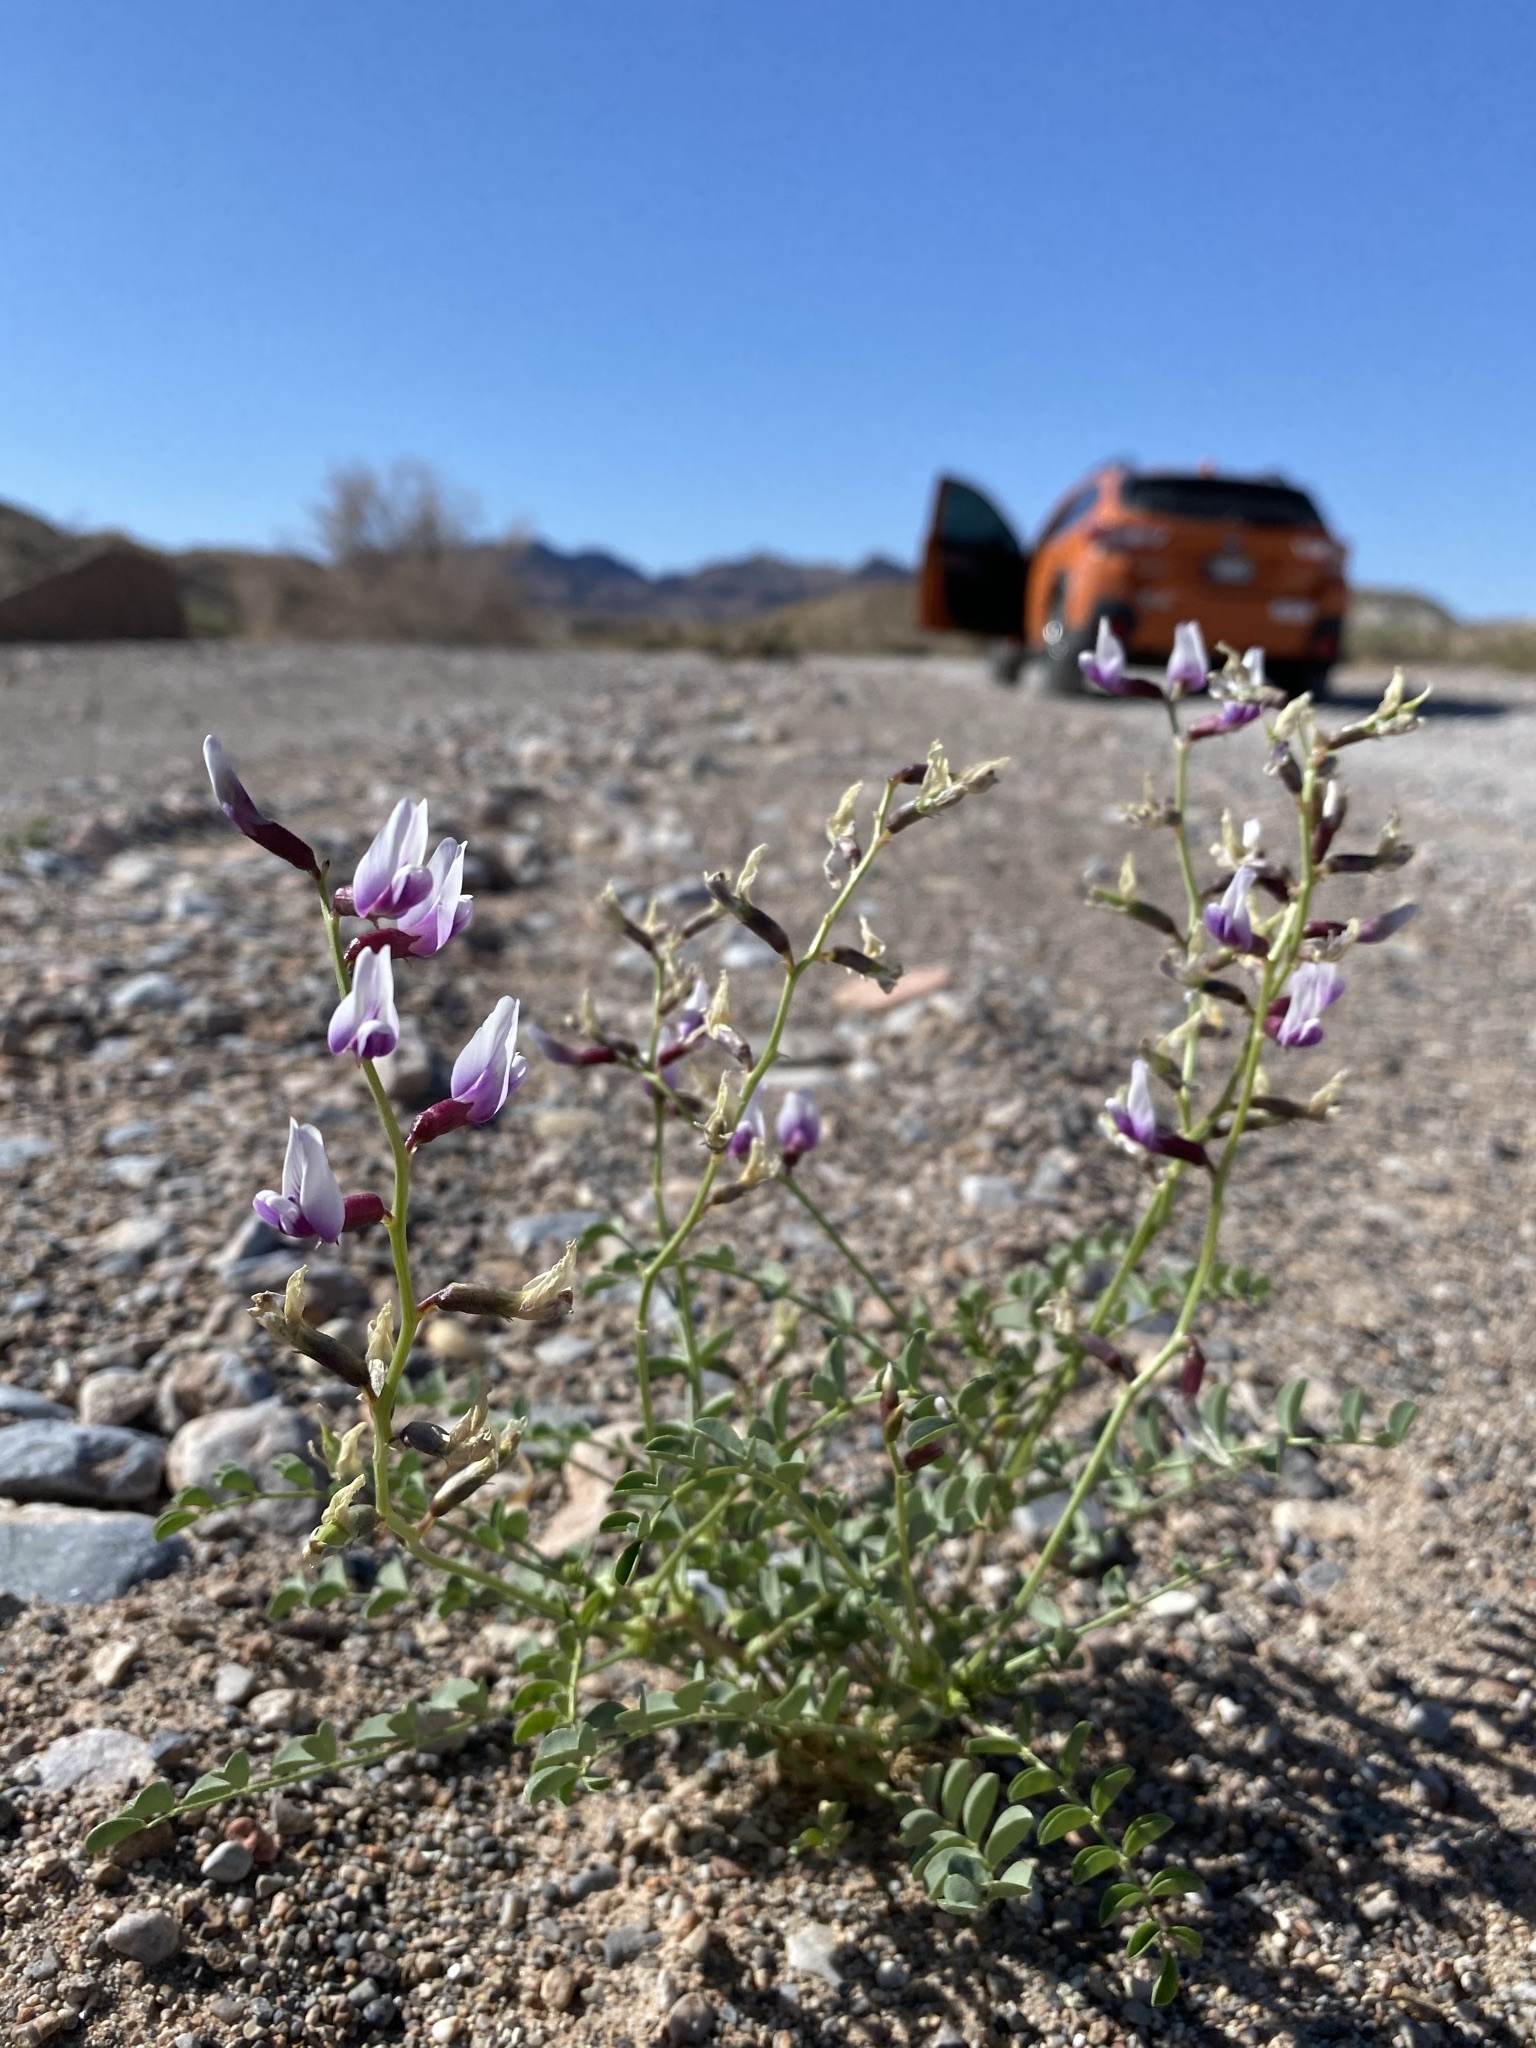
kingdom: Plantae
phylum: Tracheophyta
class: Magnoliopsida
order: Fabales
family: Fabaceae
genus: Astragalus
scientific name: Astragalus preussii
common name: Preuss's milk-vetch
